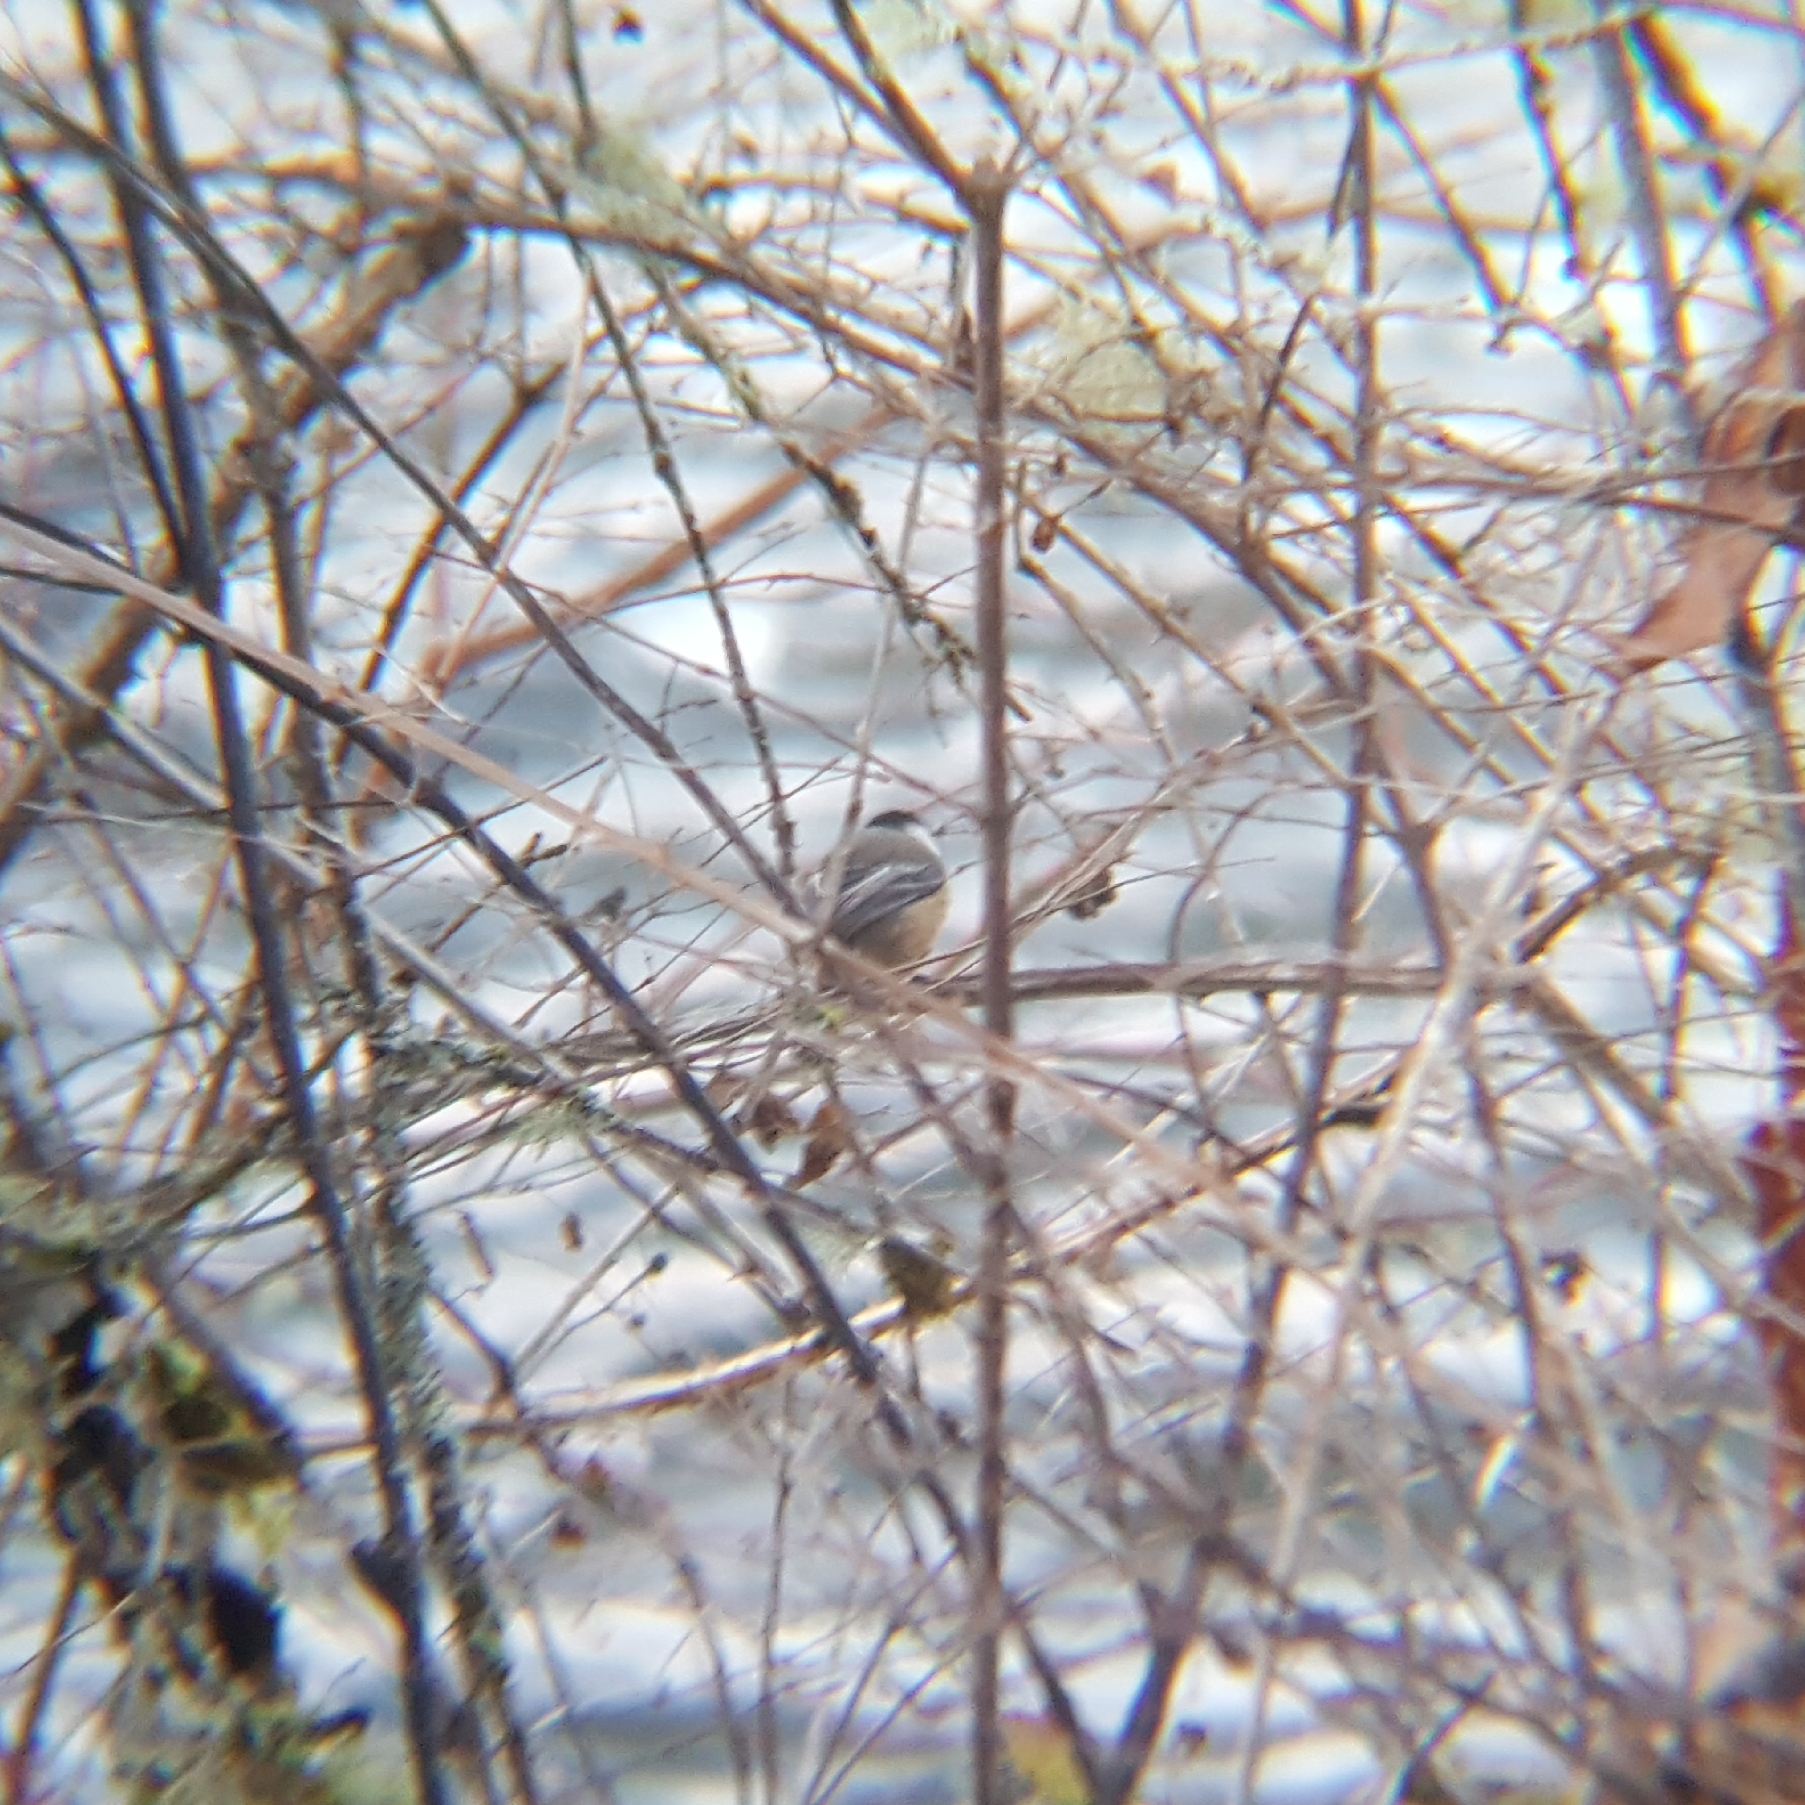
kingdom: Animalia
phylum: Chordata
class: Aves
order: Passeriformes
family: Paridae
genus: Poecile
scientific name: Poecile atricapillus
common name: Black-capped chickadee
